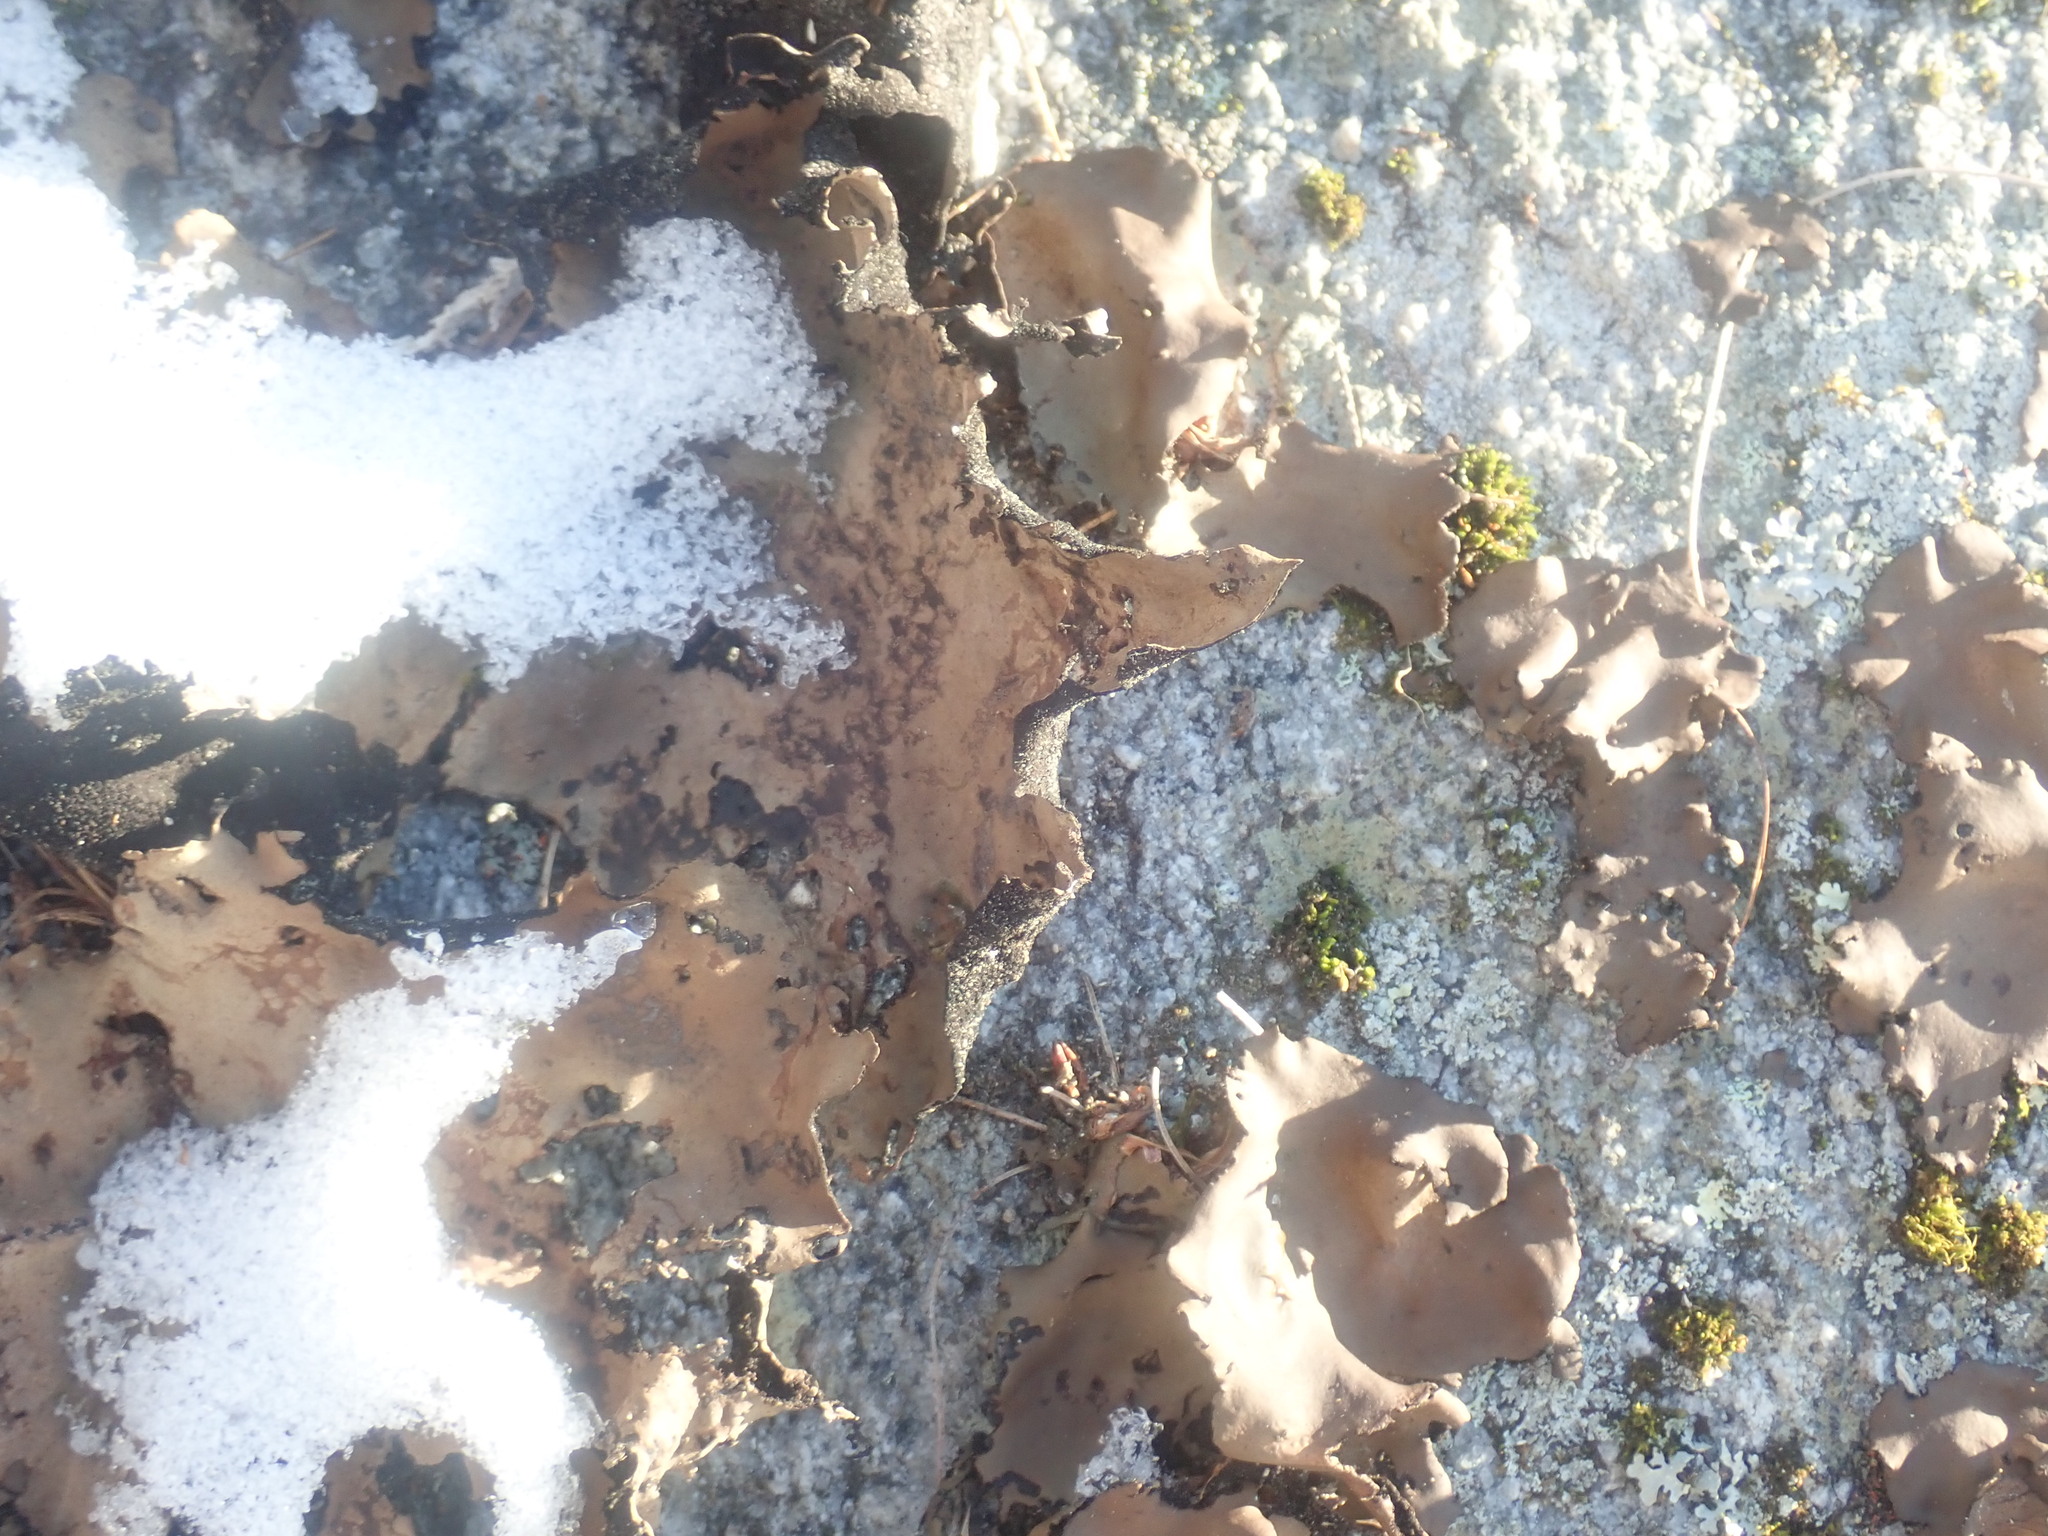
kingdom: Fungi
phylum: Ascomycota
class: Lecanoromycetes
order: Umbilicariales
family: Umbilicariaceae
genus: Umbilicaria
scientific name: Umbilicaria mammulata
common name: Smooth rock tripe
